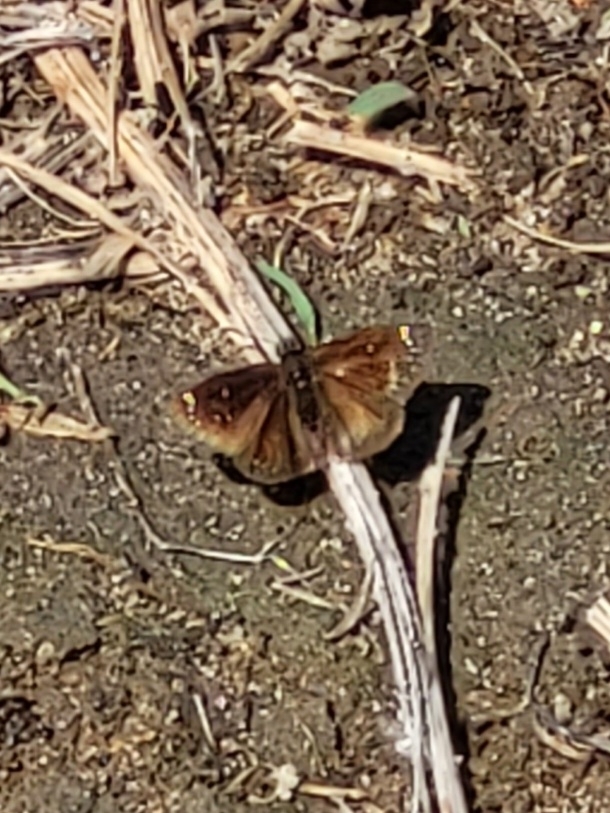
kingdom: Animalia
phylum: Arthropoda
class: Insecta
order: Lepidoptera
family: Hesperiidae
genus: Pholisora
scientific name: Pholisora catullus
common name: Common sootywing
